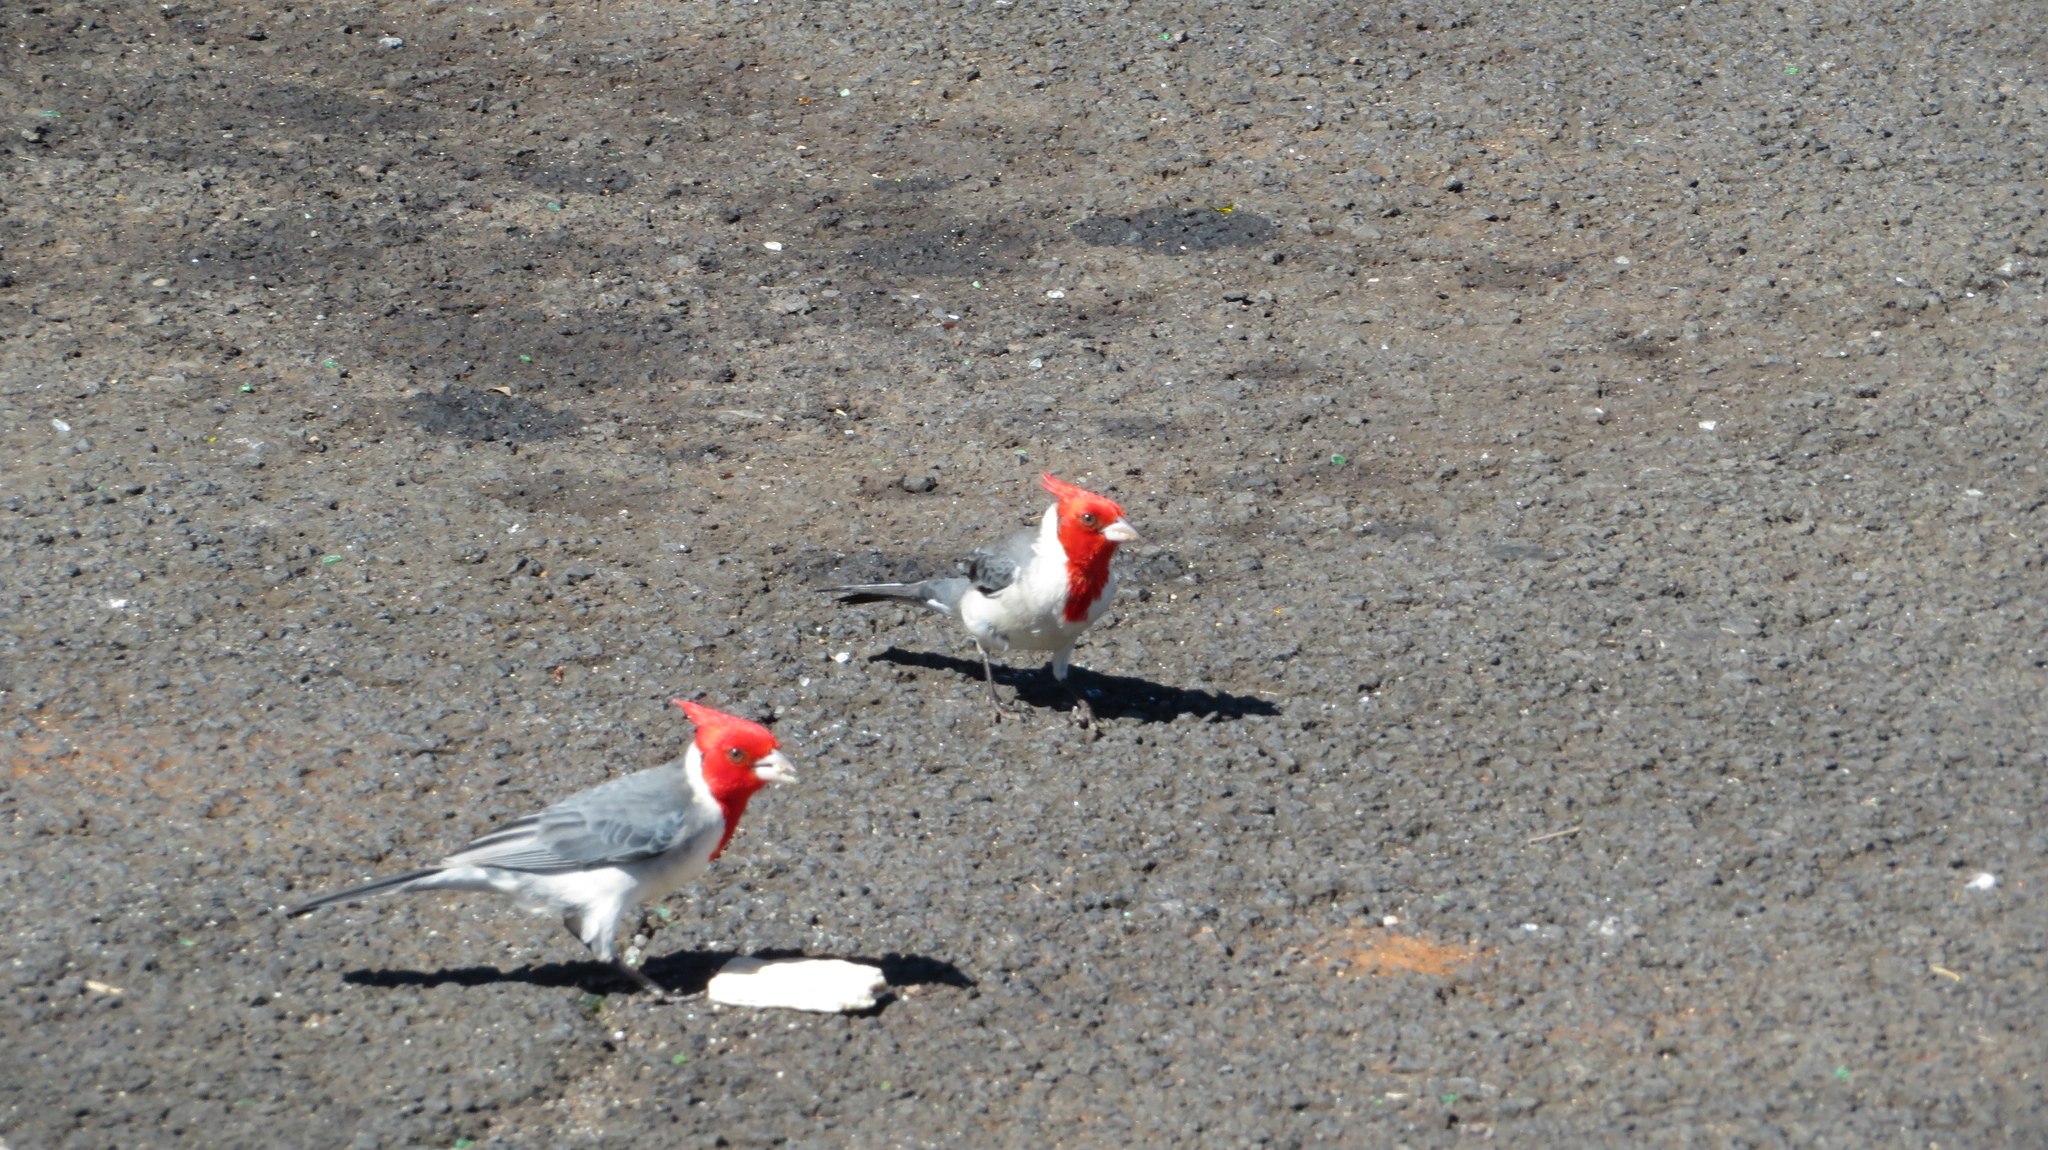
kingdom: Animalia
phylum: Chordata
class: Aves
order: Passeriformes
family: Thraupidae
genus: Paroaria
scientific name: Paroaria coronata
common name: Red-crested cardinal
